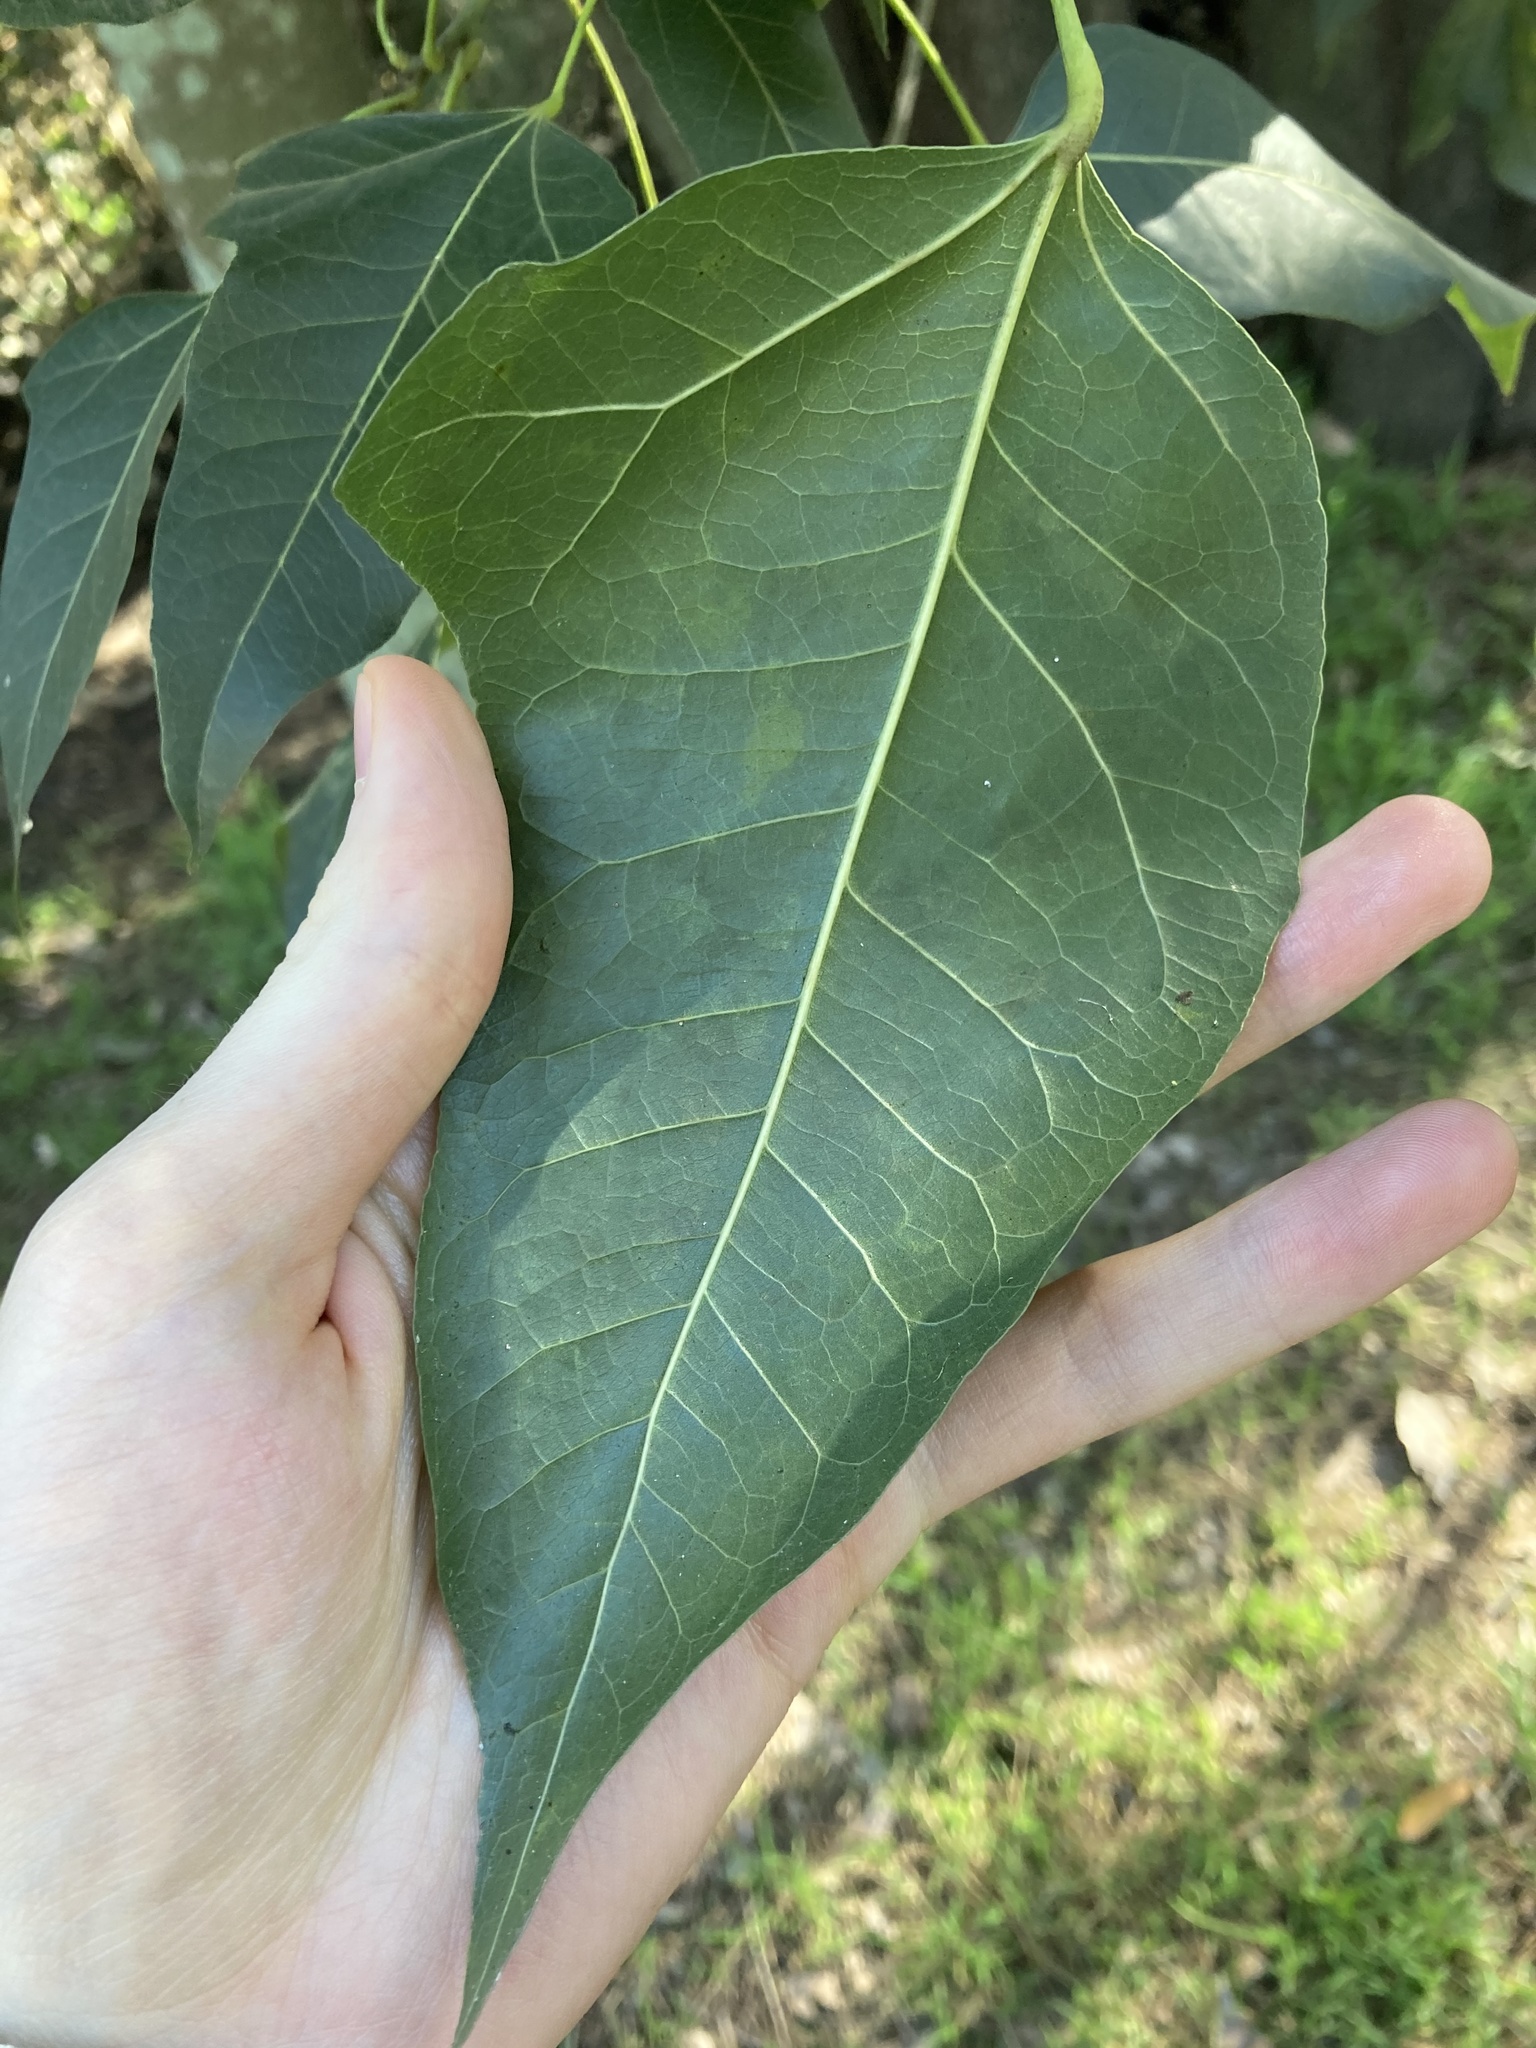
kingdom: Plantae
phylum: Tracheophyta
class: Magnoliopsida
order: Malvales
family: Malvaceae
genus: Brachychiton
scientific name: Brachychiton populneus
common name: Kurrajong
